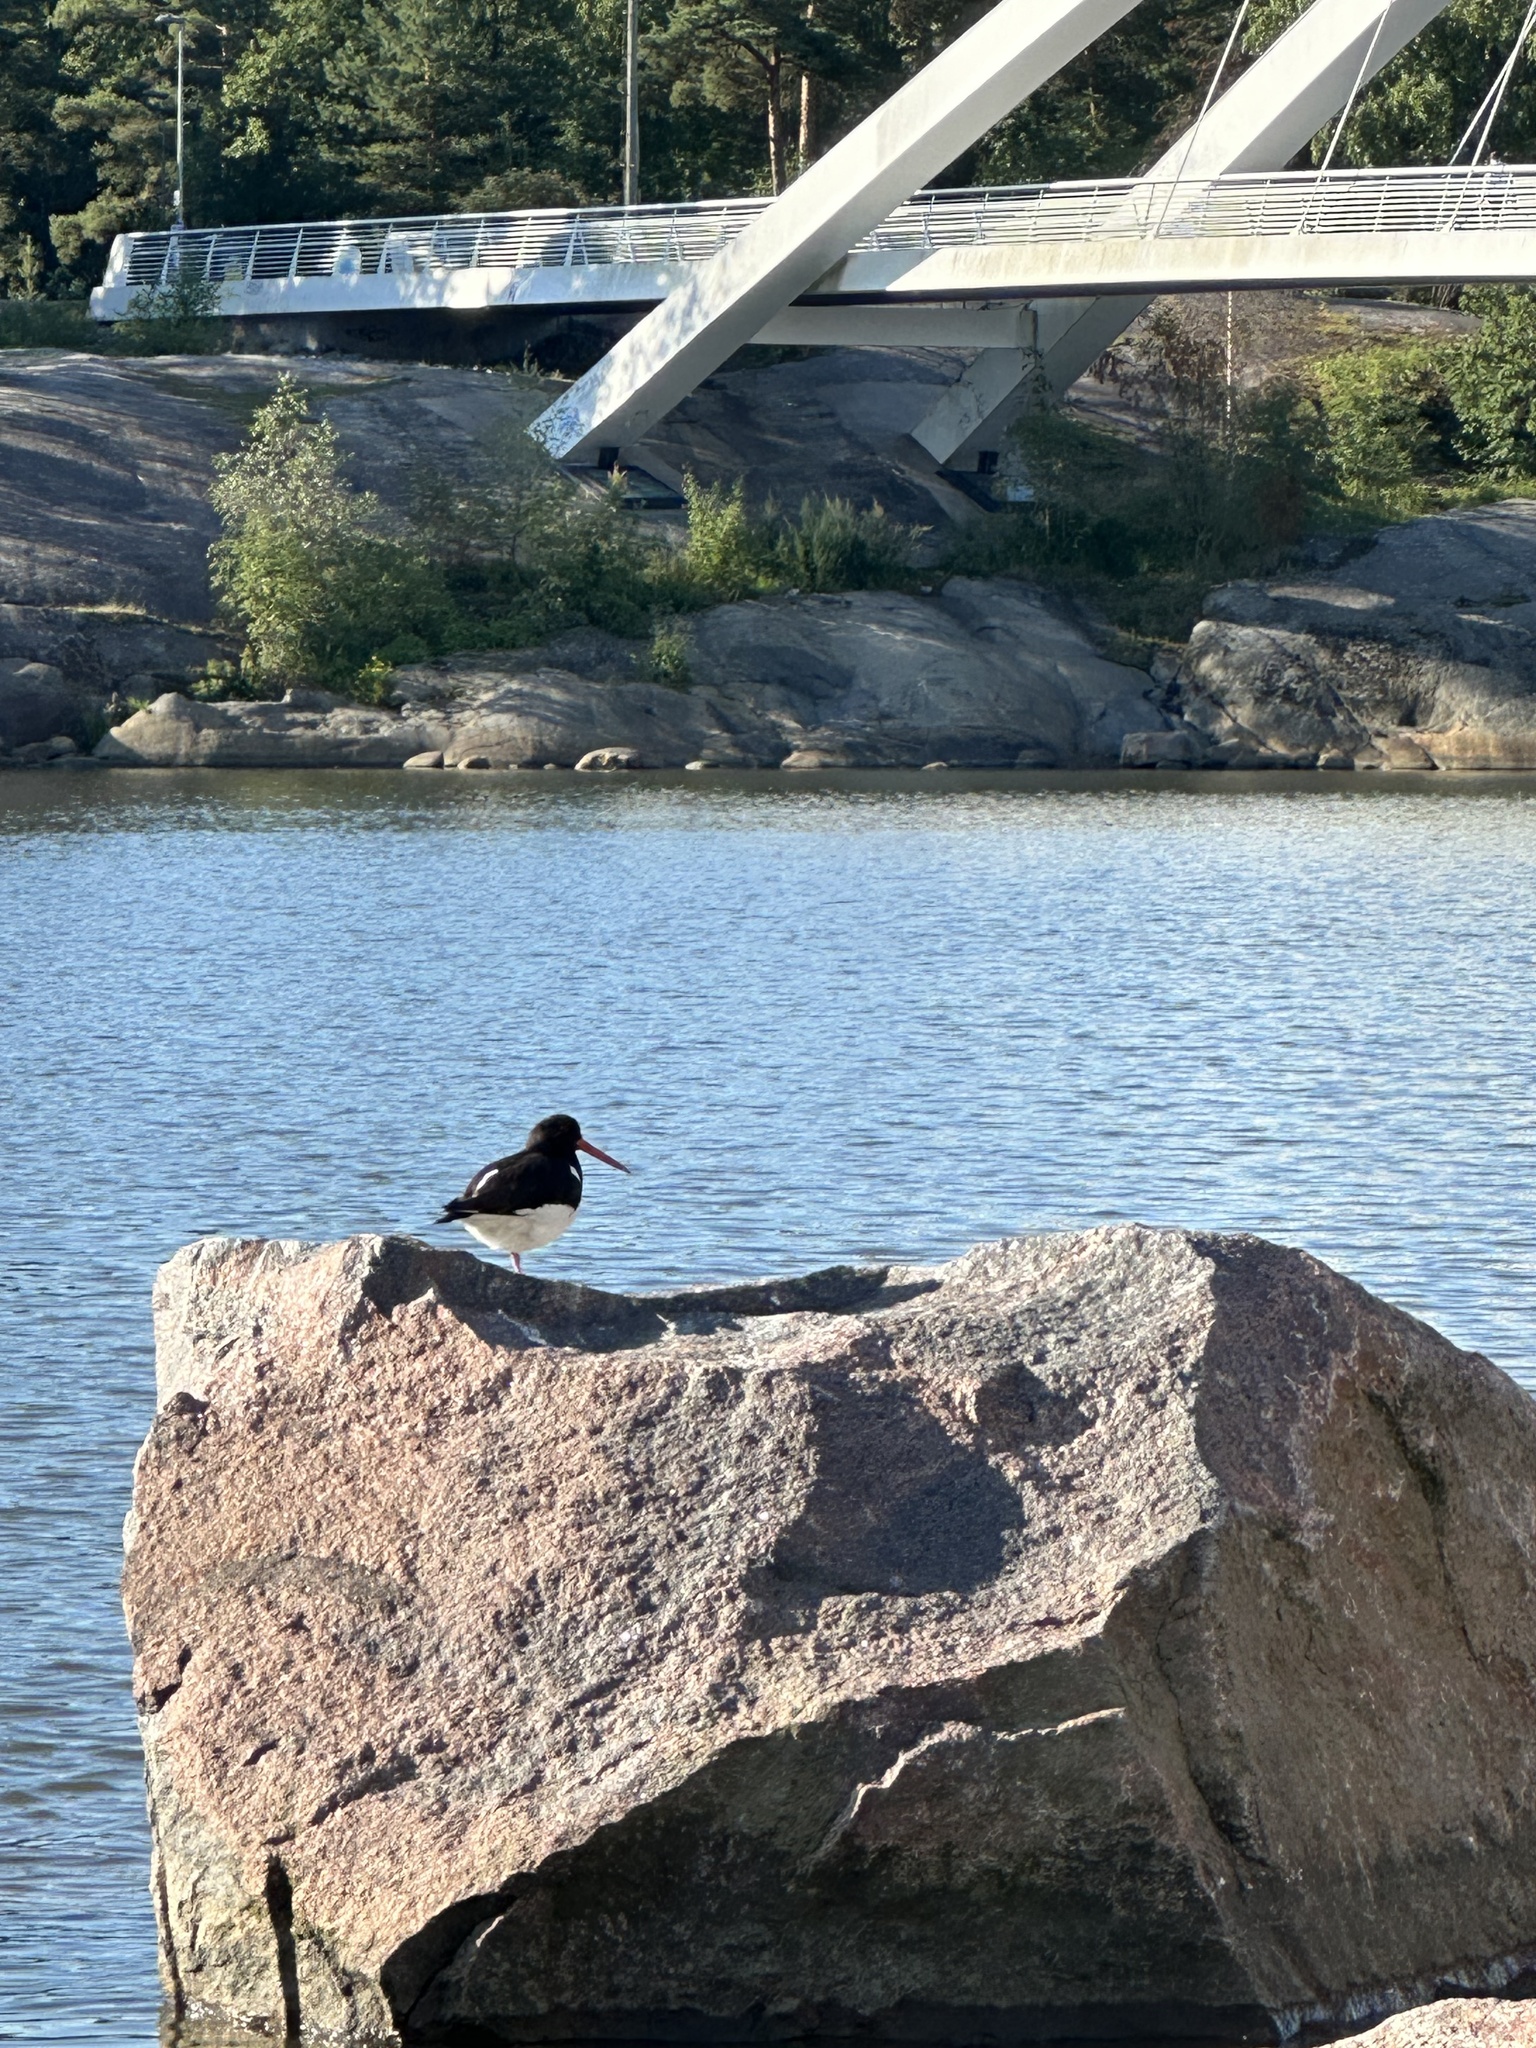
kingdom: Animalia
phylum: Chordata
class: Aves
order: Charadriiformes
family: Haematopodidae
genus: Haematopus
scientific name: Haematopus ostralegus
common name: Eurasian oystercatcher
